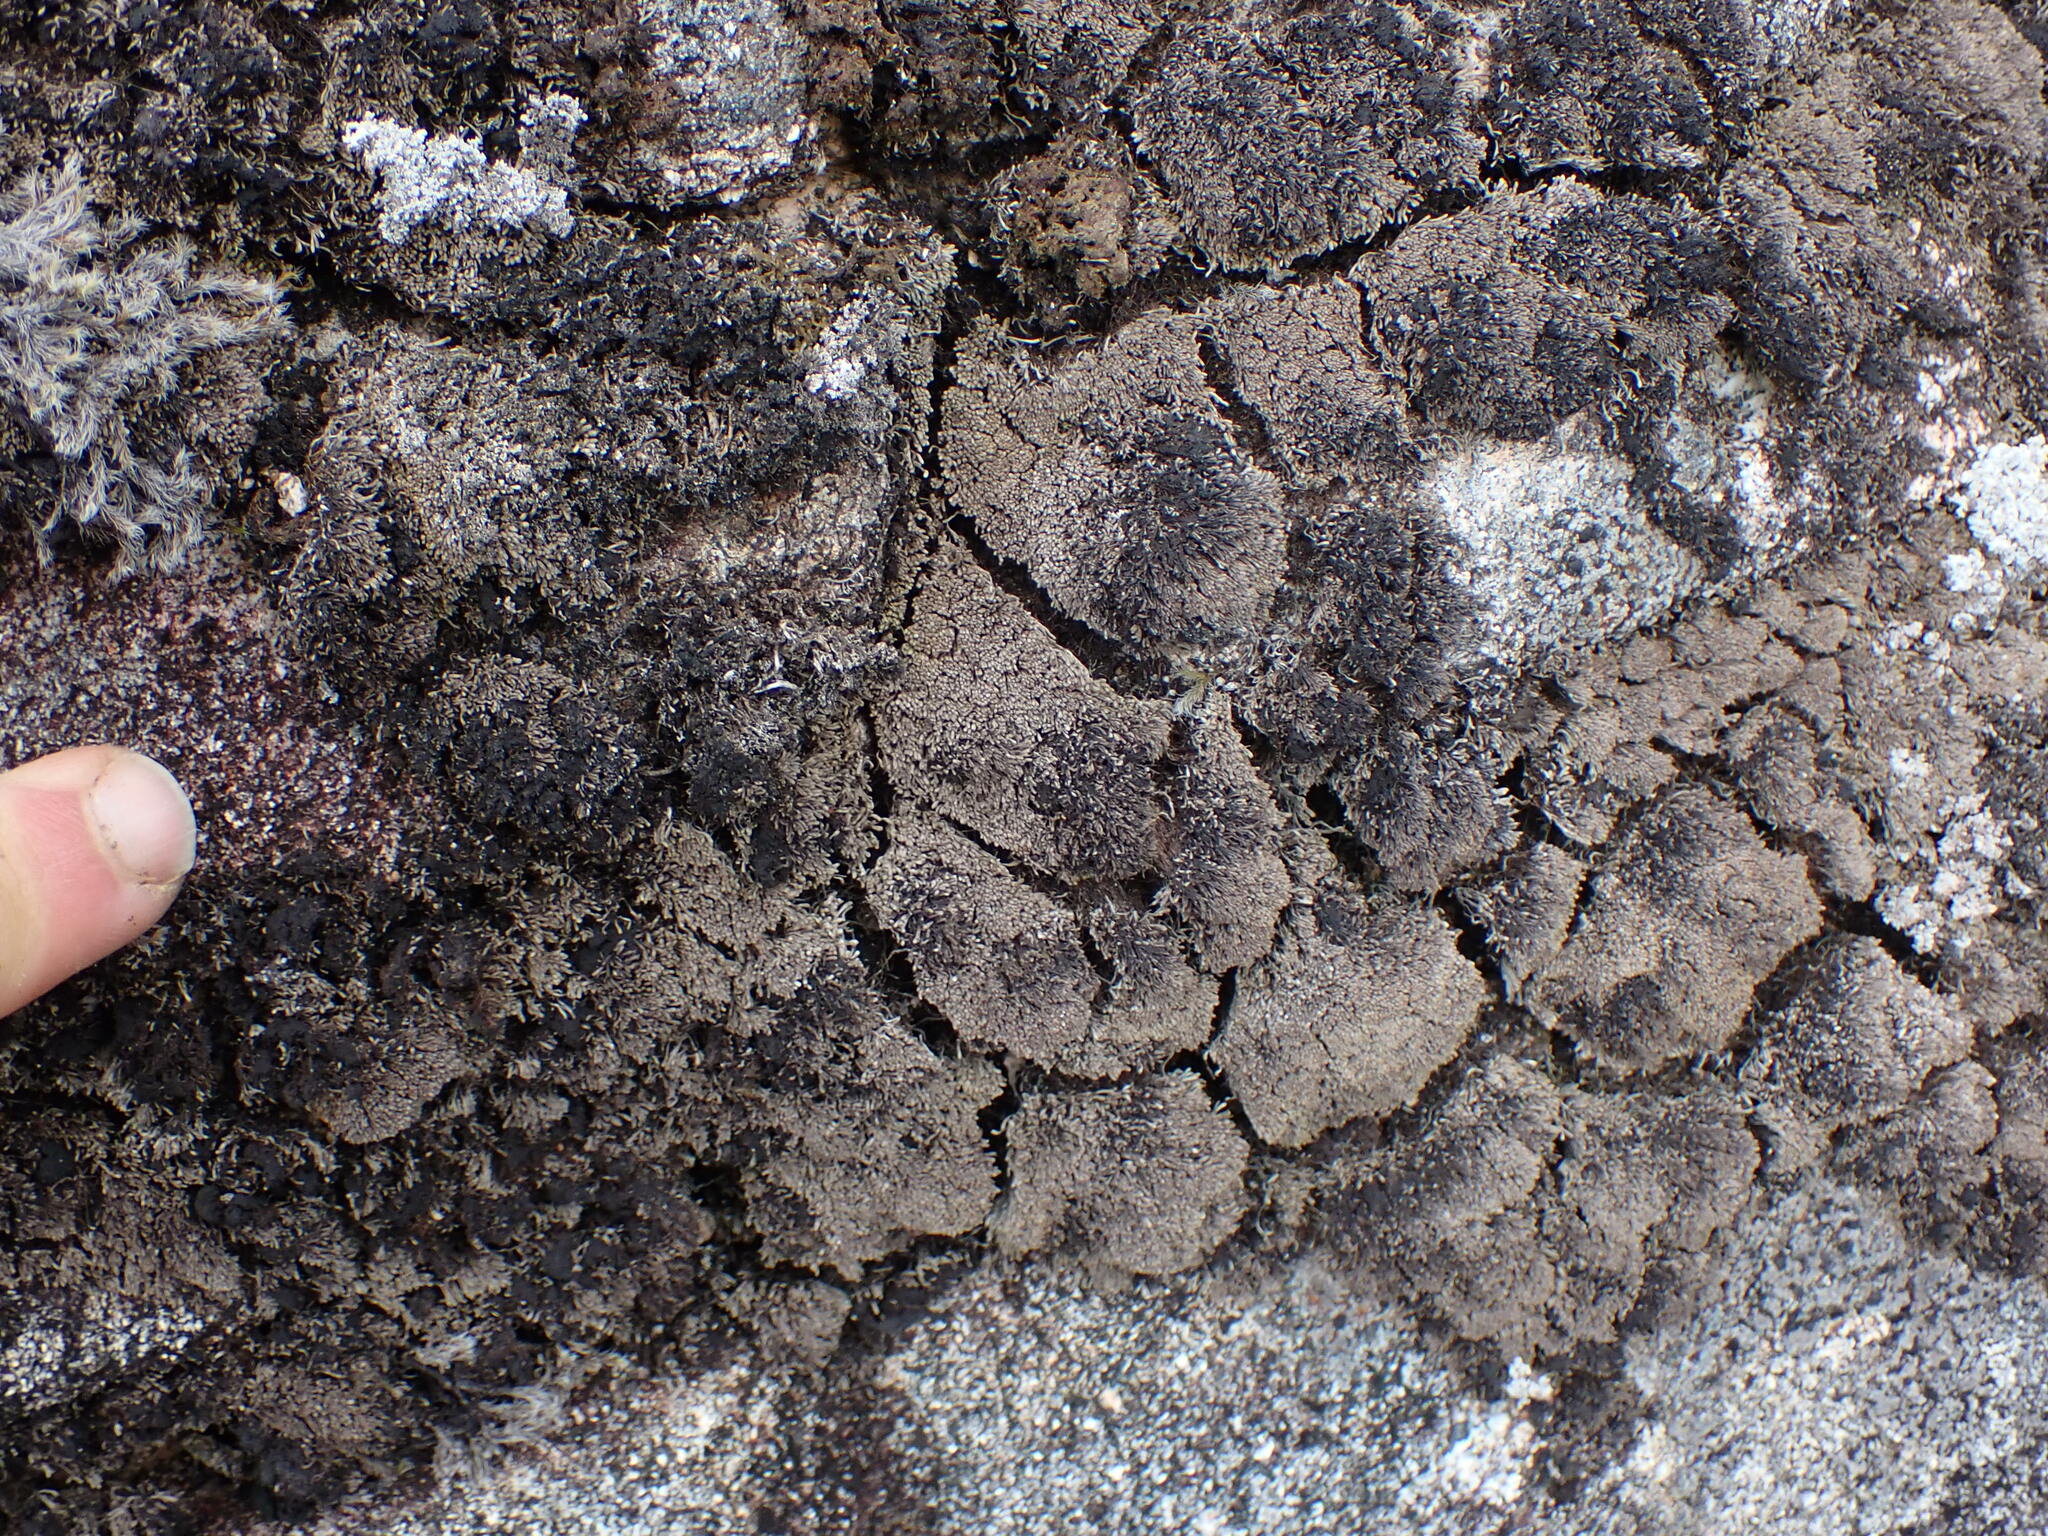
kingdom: Plantae
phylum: Marchantiophyta
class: Jungermanniopsida
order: Jungermanniales
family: Gymnomitriaceae
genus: Gymnomitrion
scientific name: Gymnomitrion obtusum
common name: White frostwort
